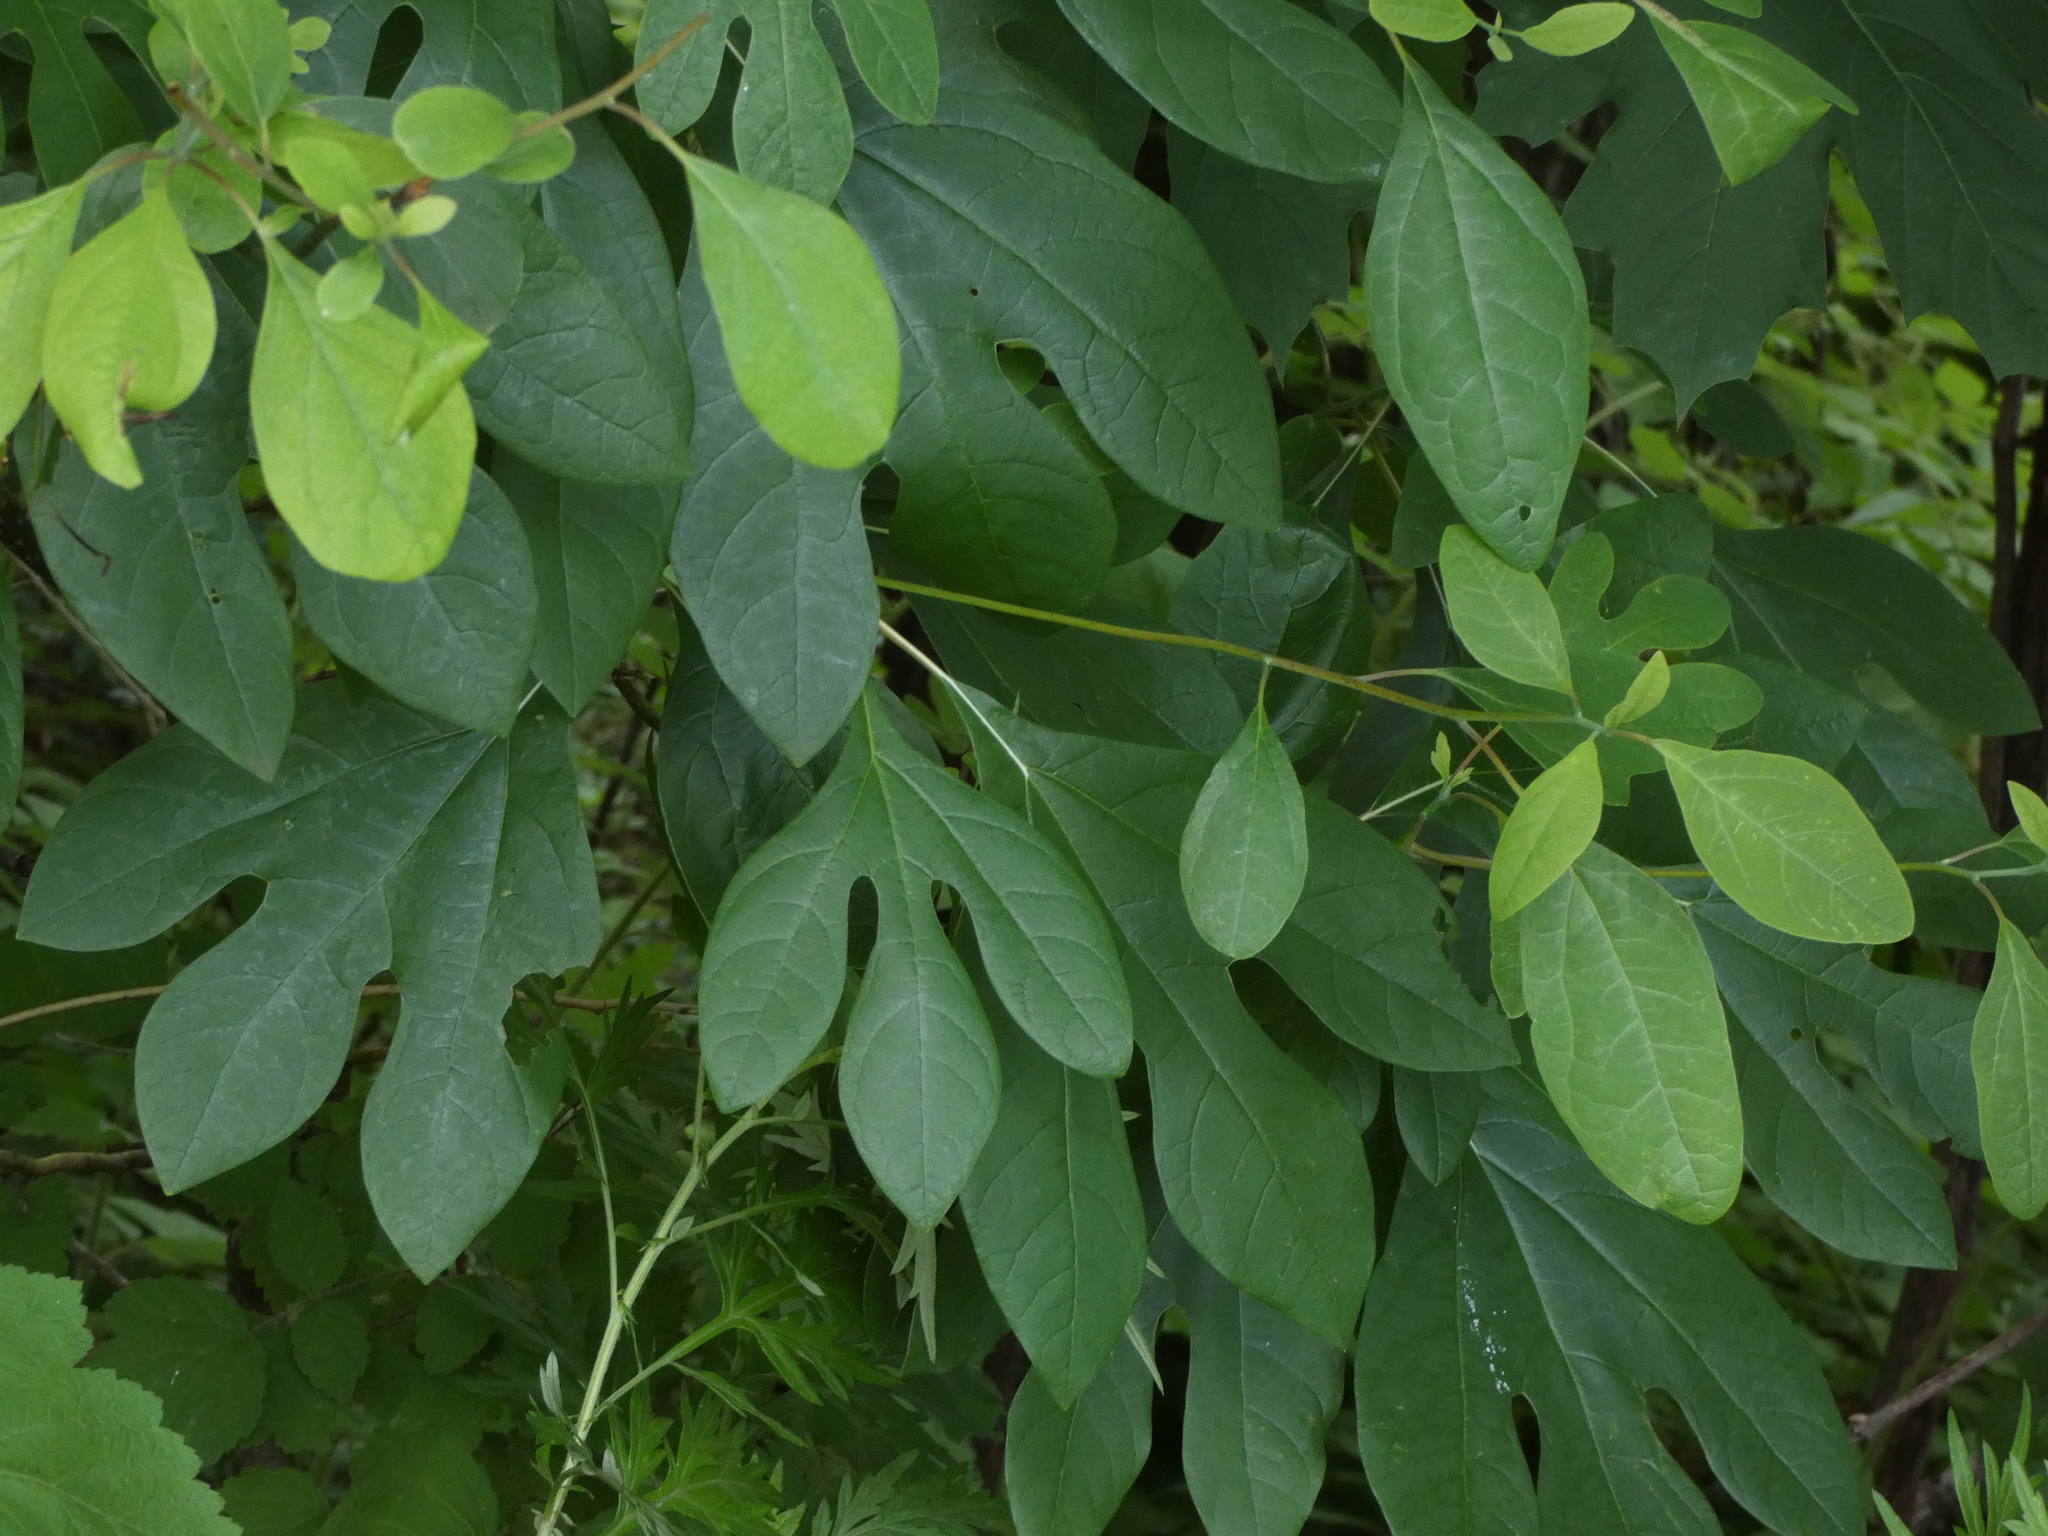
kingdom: Plantae
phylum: Tracheophyta
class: Magnoliopsida
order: Laurales
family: Lauraceae
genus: Sassafras
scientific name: Sassafras albidum
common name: Sassafras
